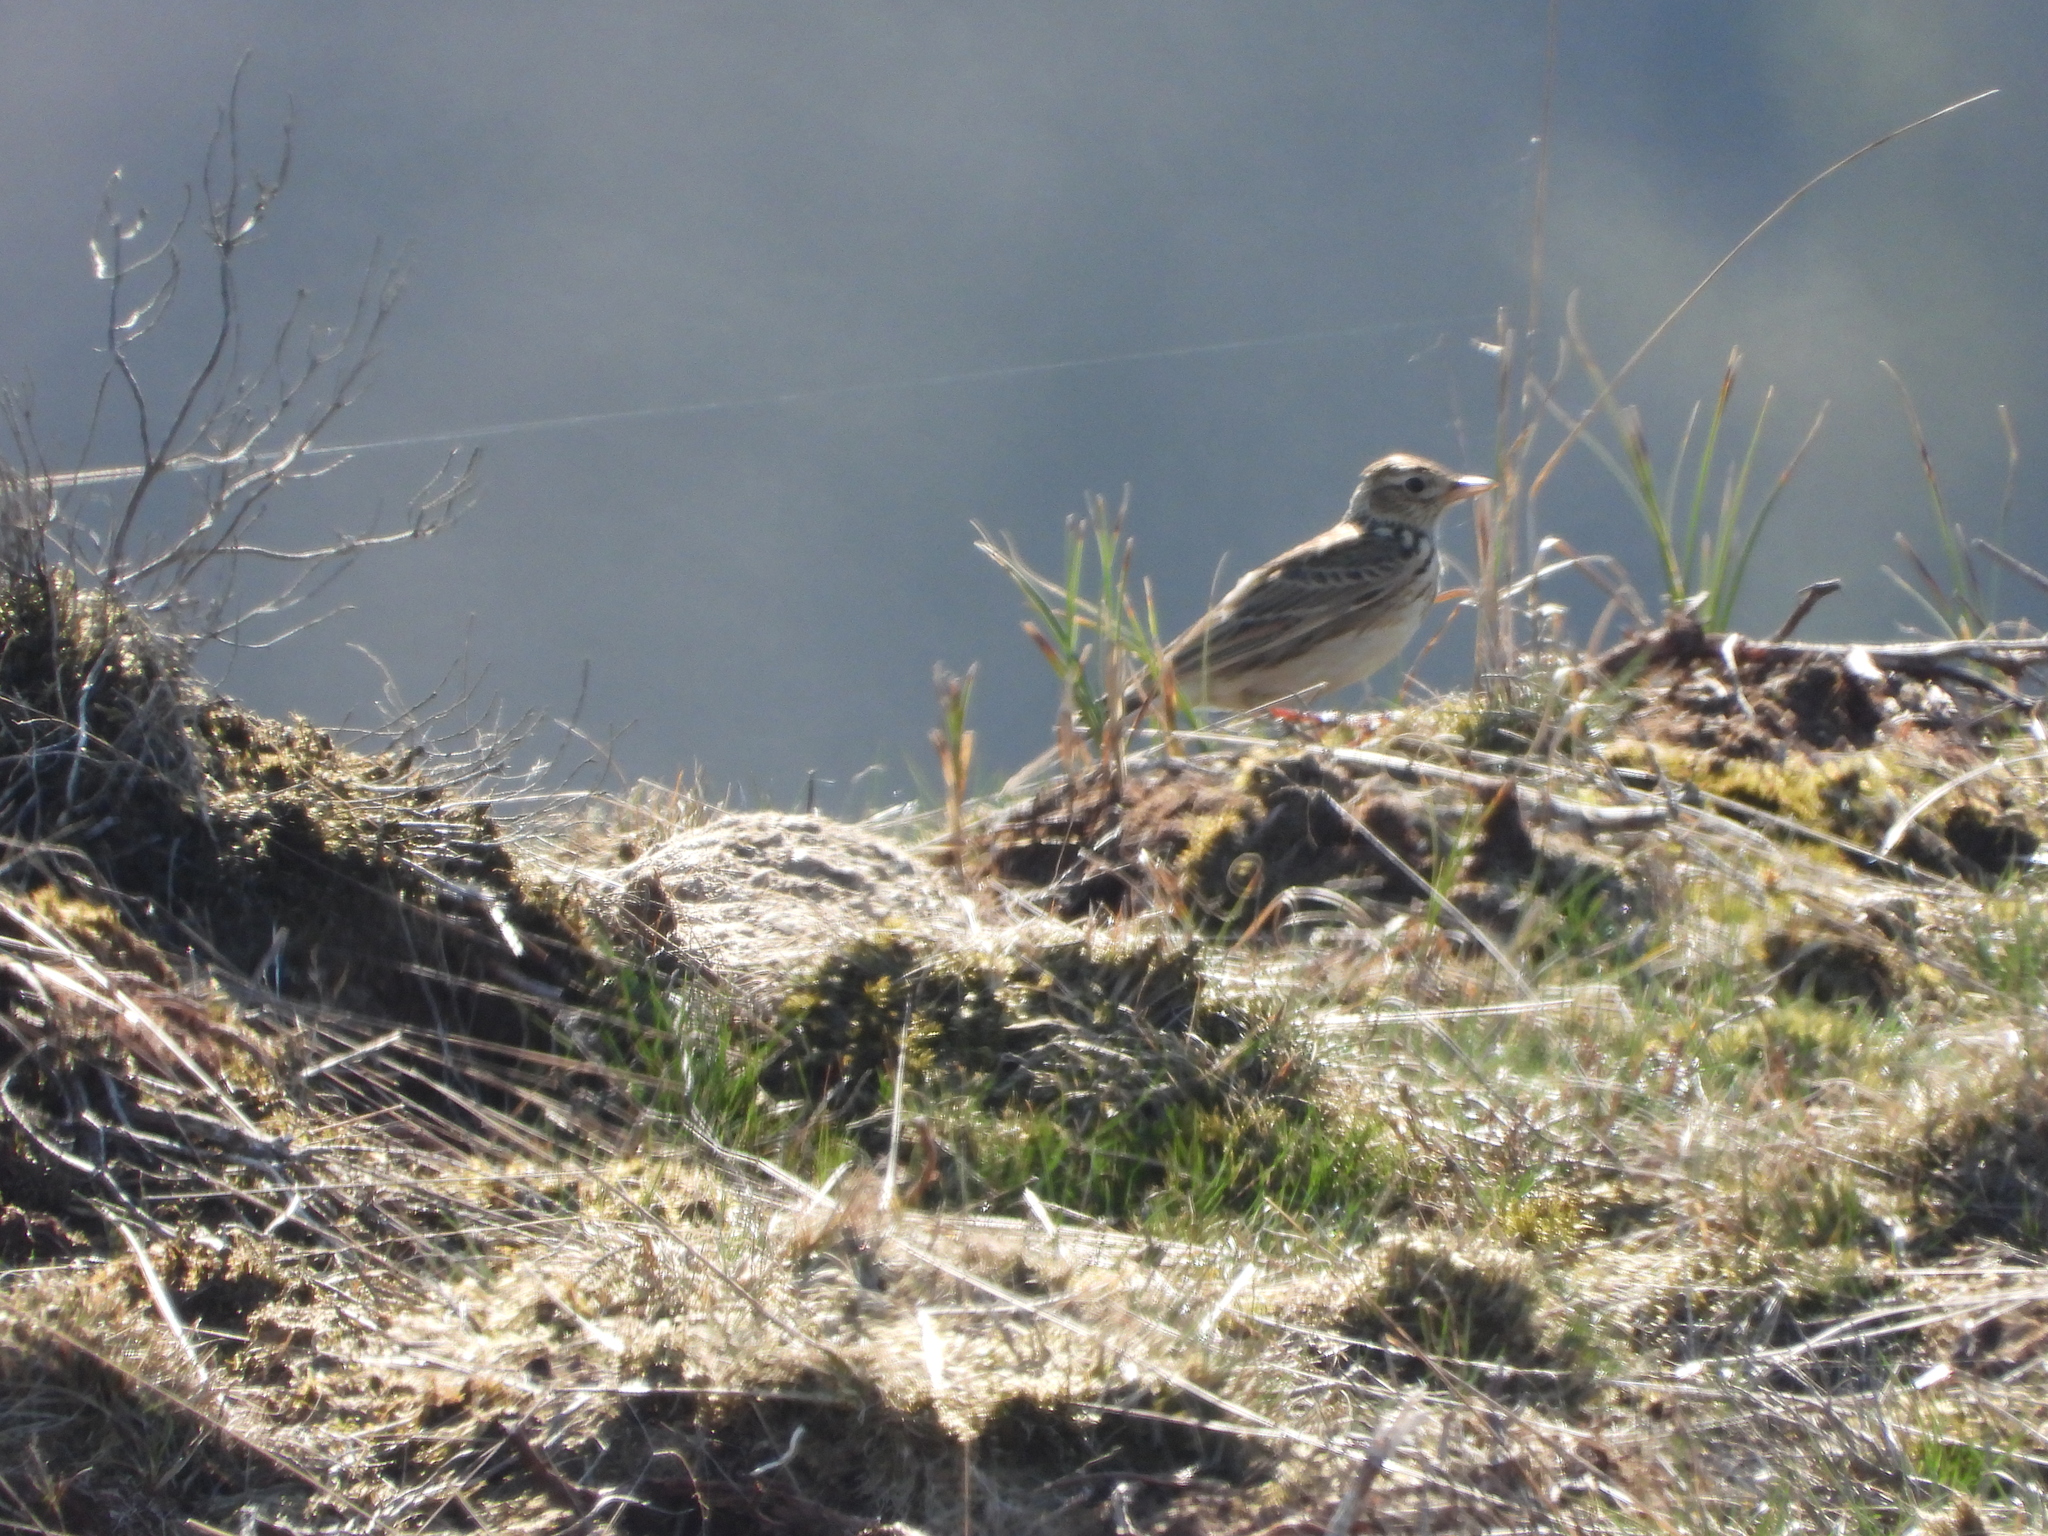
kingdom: Animalia
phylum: Chordata
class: Aves
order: Passeriformes
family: Alaudidae
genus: Alauda
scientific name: Alauda arvensis
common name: Eurasian skylark
